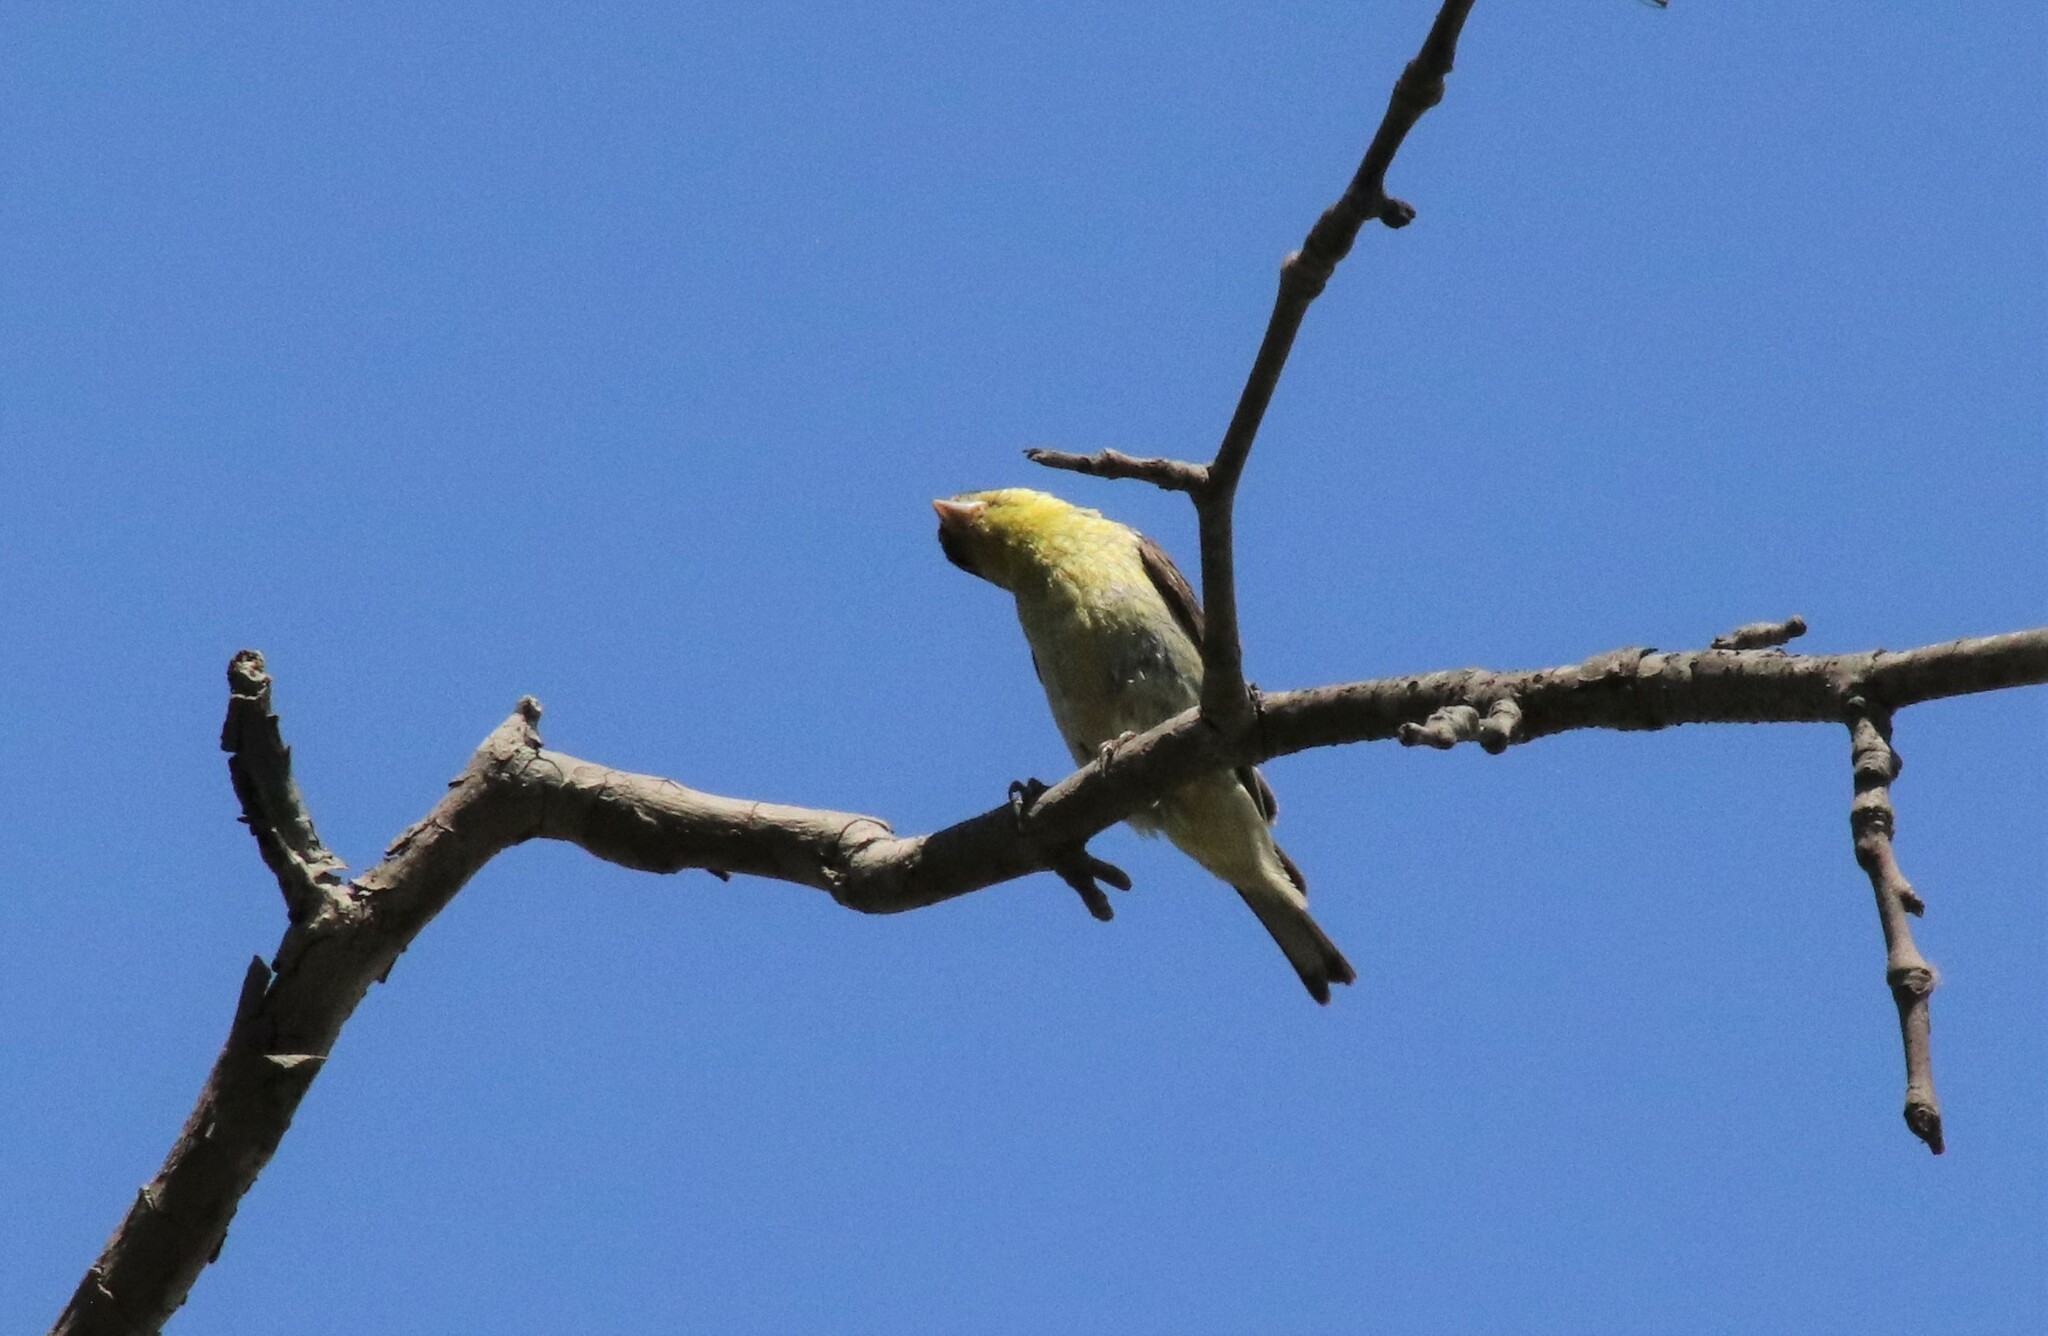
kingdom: Animalia
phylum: Chordata
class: Aves
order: Passeriformes
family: Fringillidae
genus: Spinus
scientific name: Spinus psaltria
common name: Lesser goldfinch
